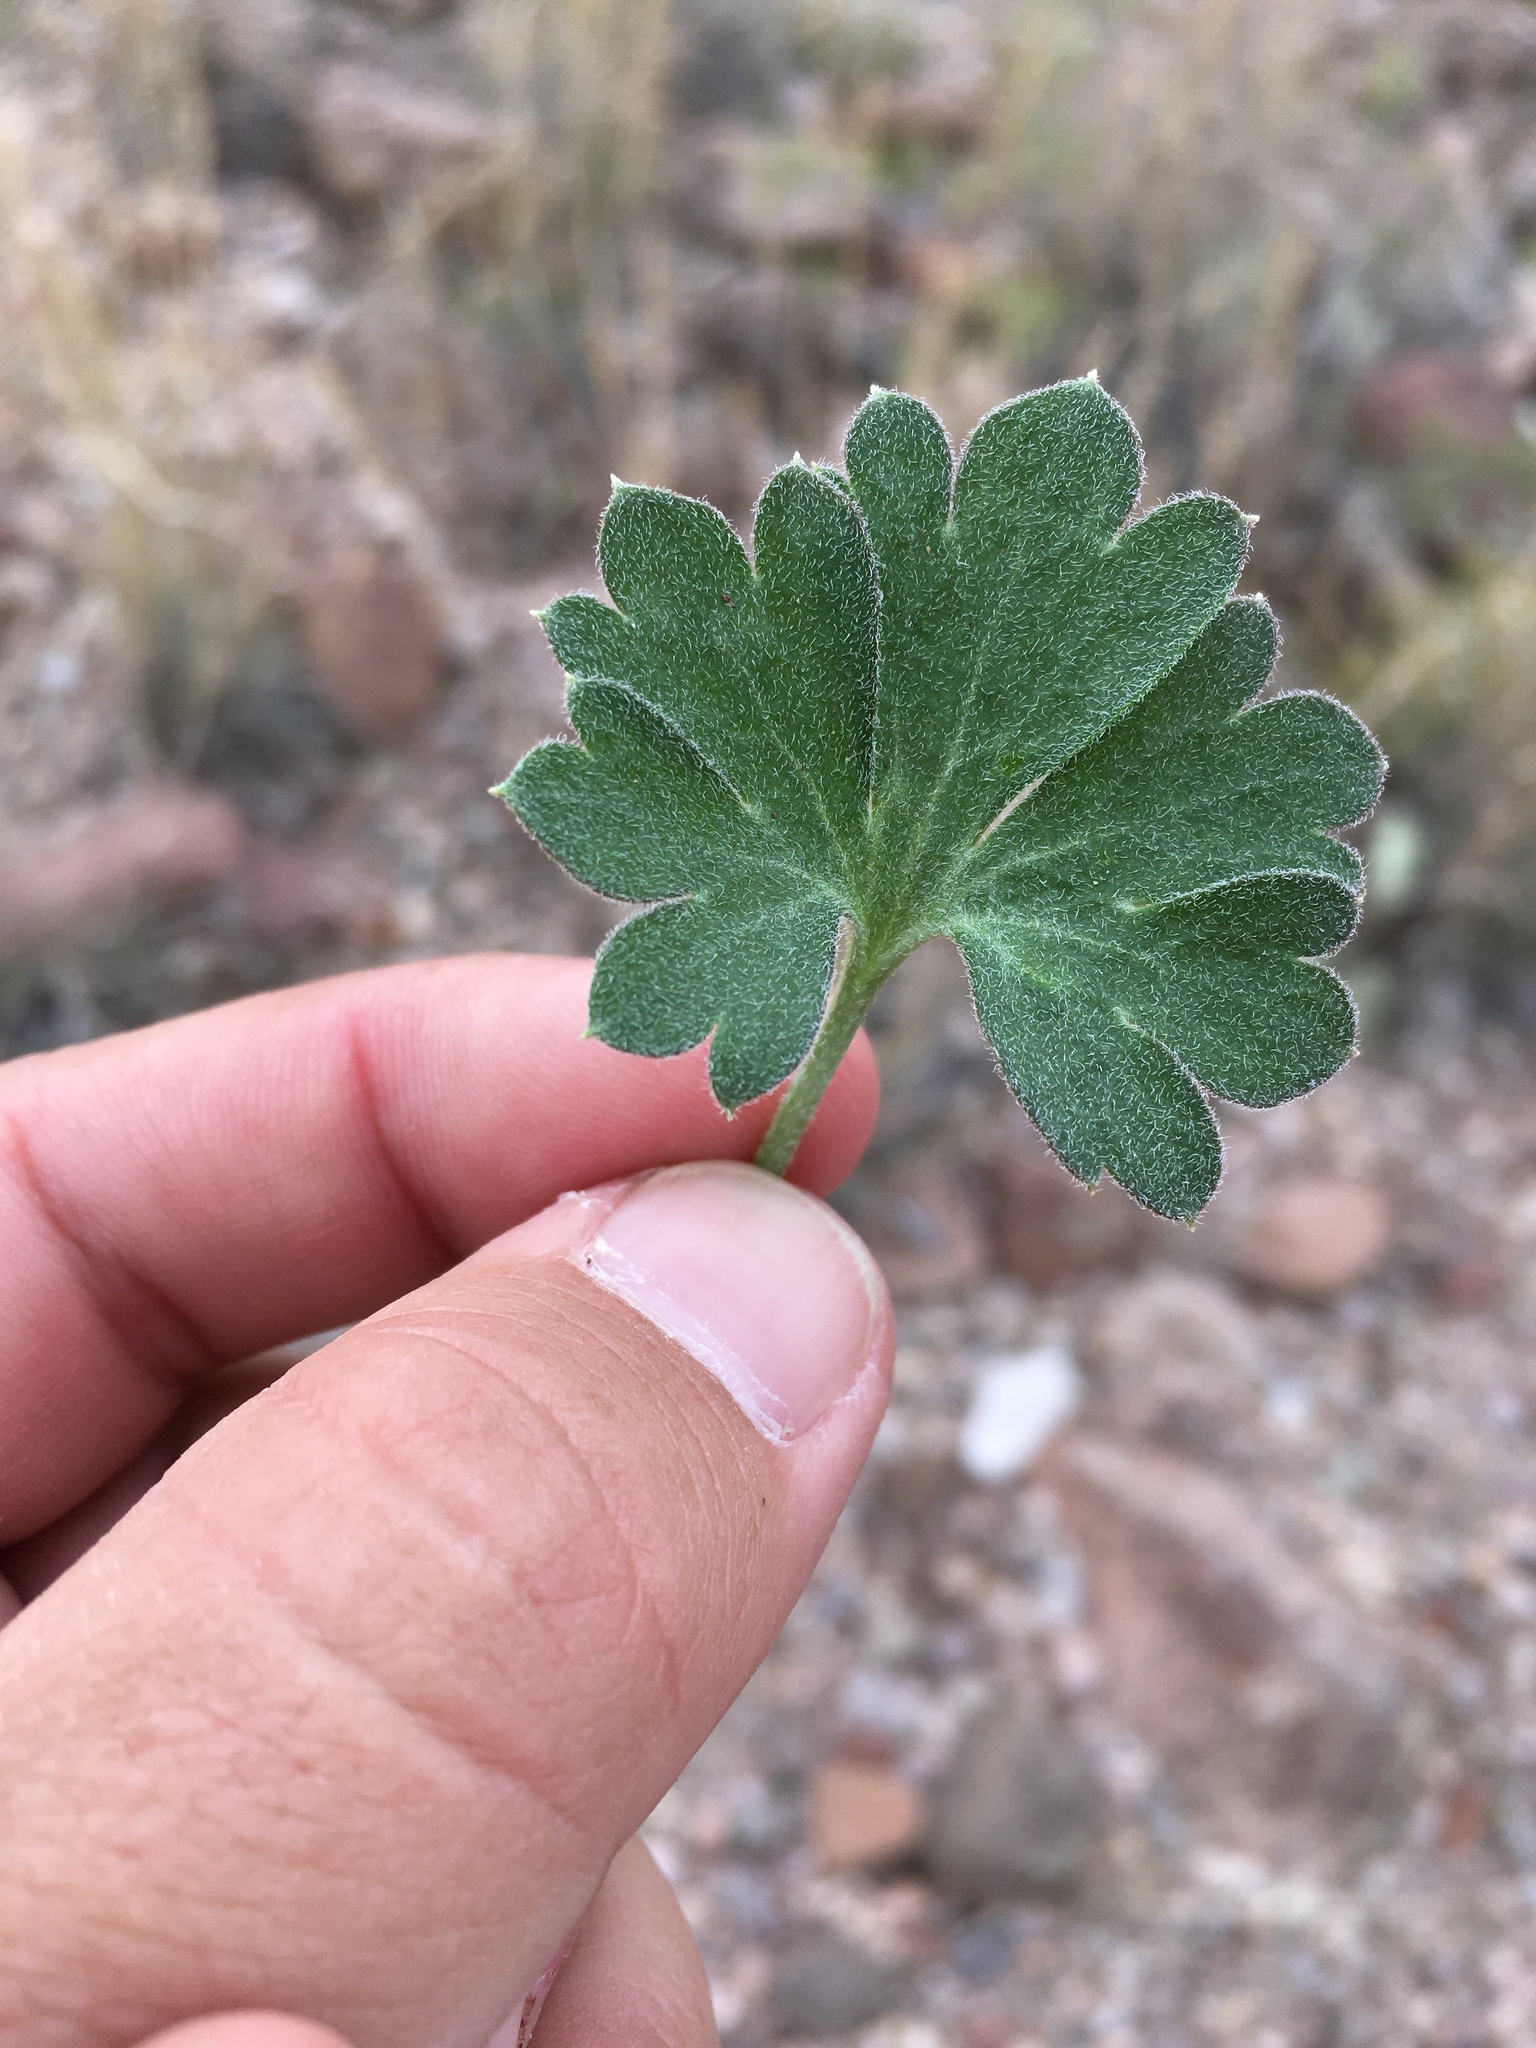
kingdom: Plantae
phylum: Tracheophyta
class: Magnoliopsida
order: Ranunculales
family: Ranunculaceae
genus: Delphinium
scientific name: Delphinium scaposum
